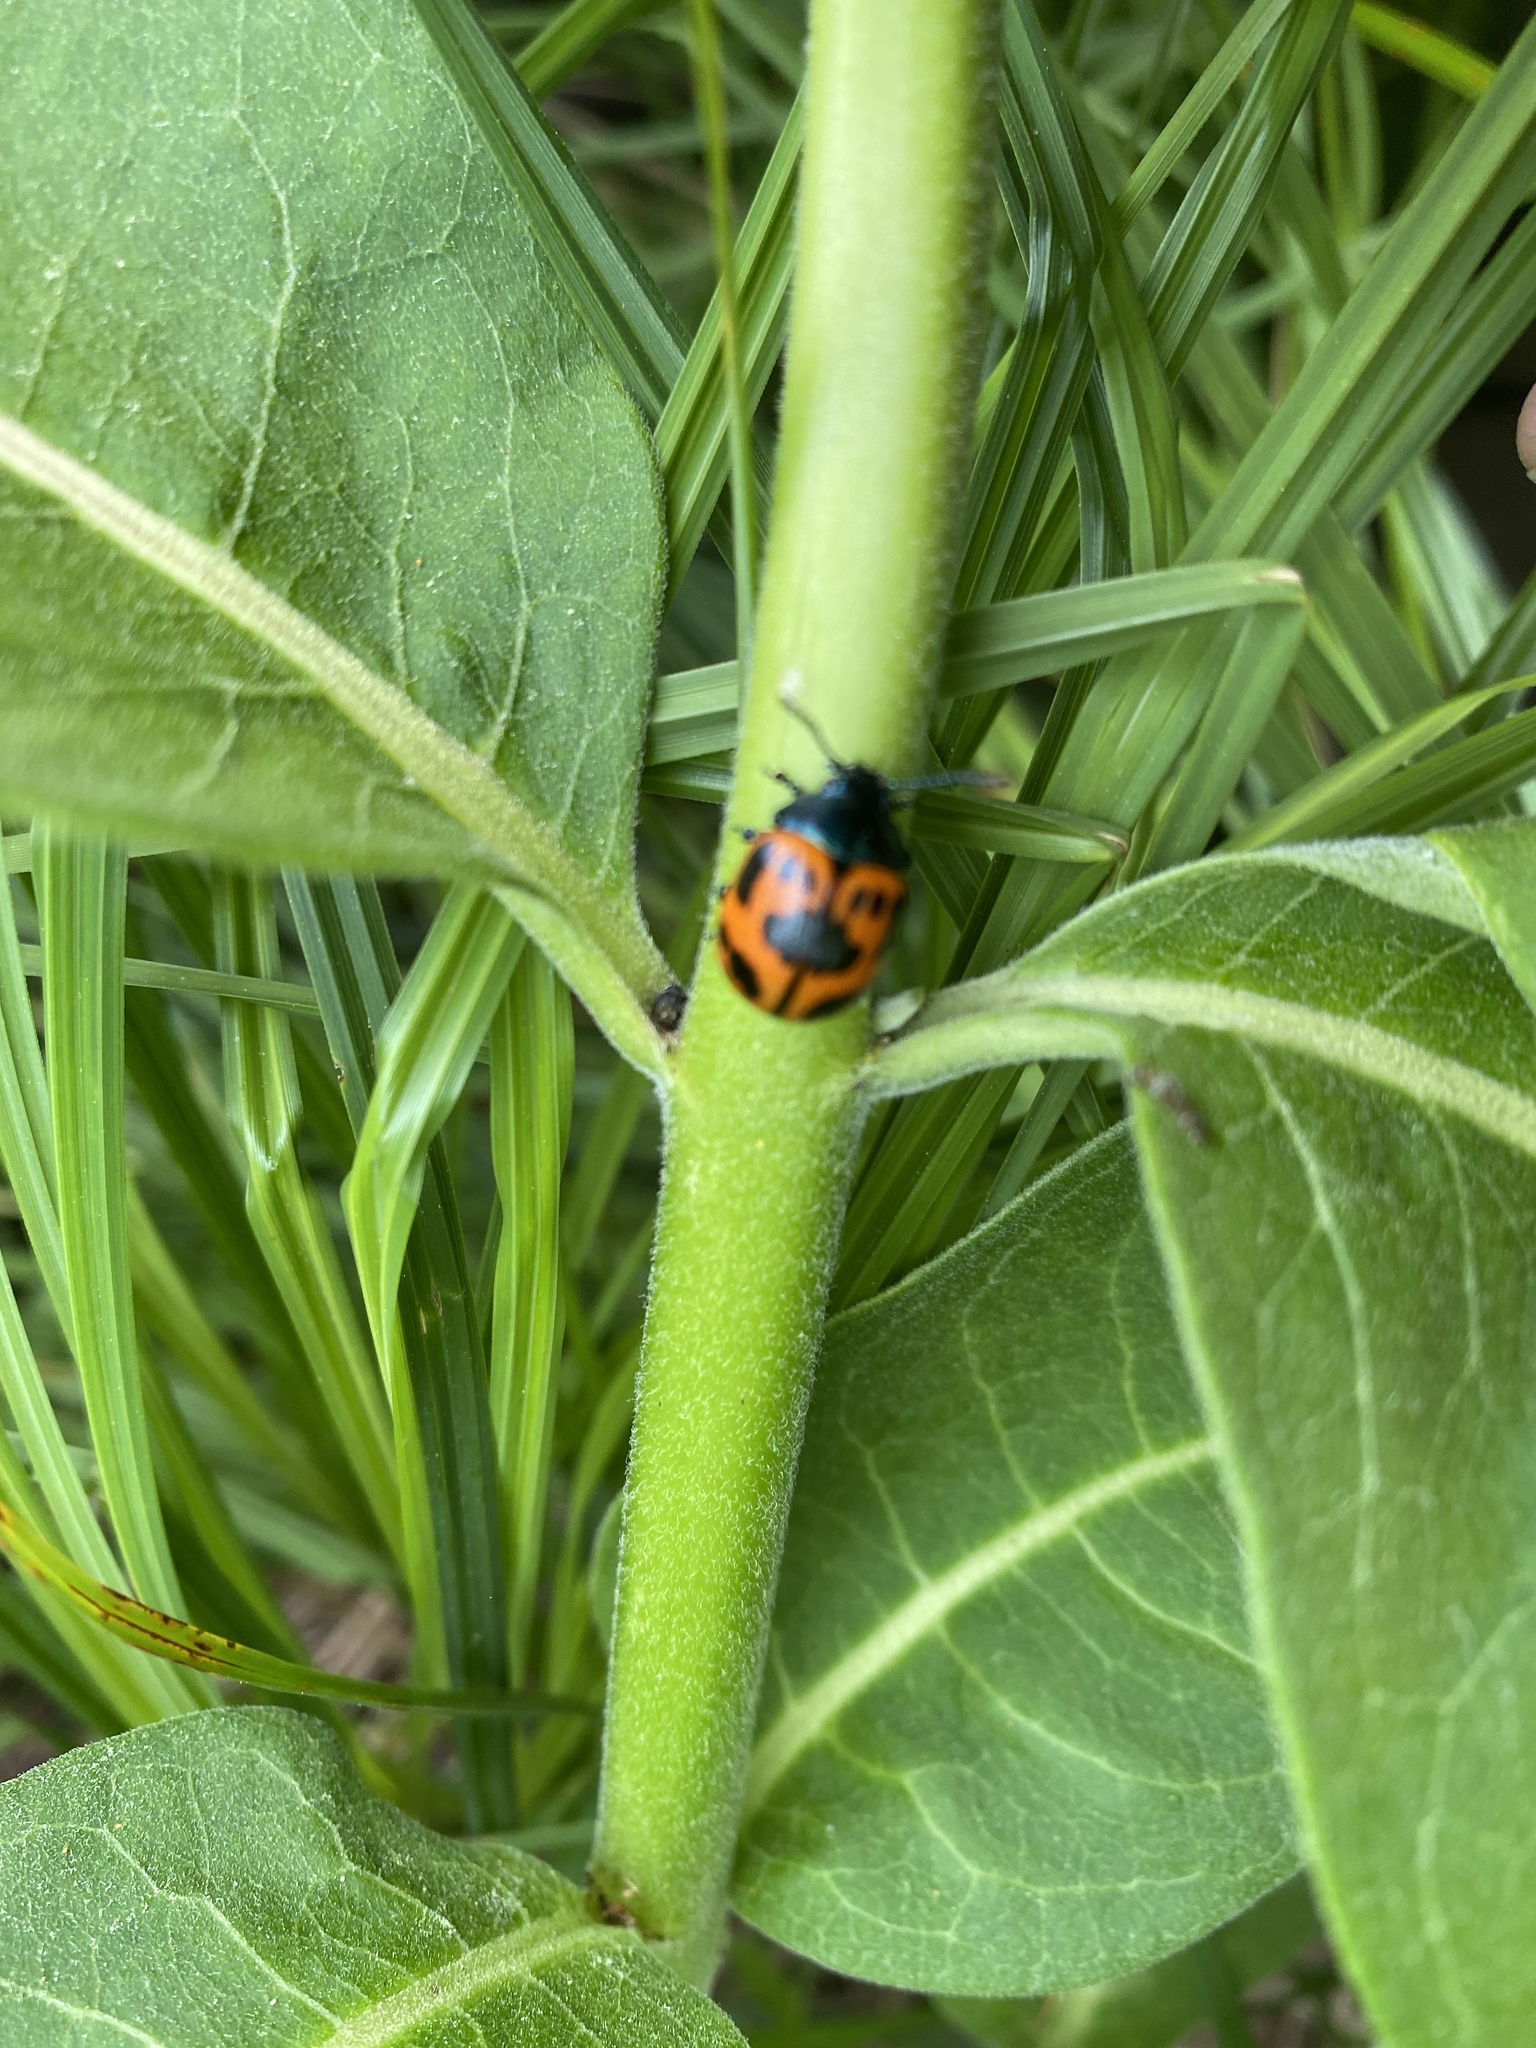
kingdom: Animalia
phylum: Arthropoda
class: Insecta
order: Coleoptera
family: Chrysomelidae
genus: Labidomera
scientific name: Labidomera clivicollis
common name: Swamp milkweed leaf beetle
